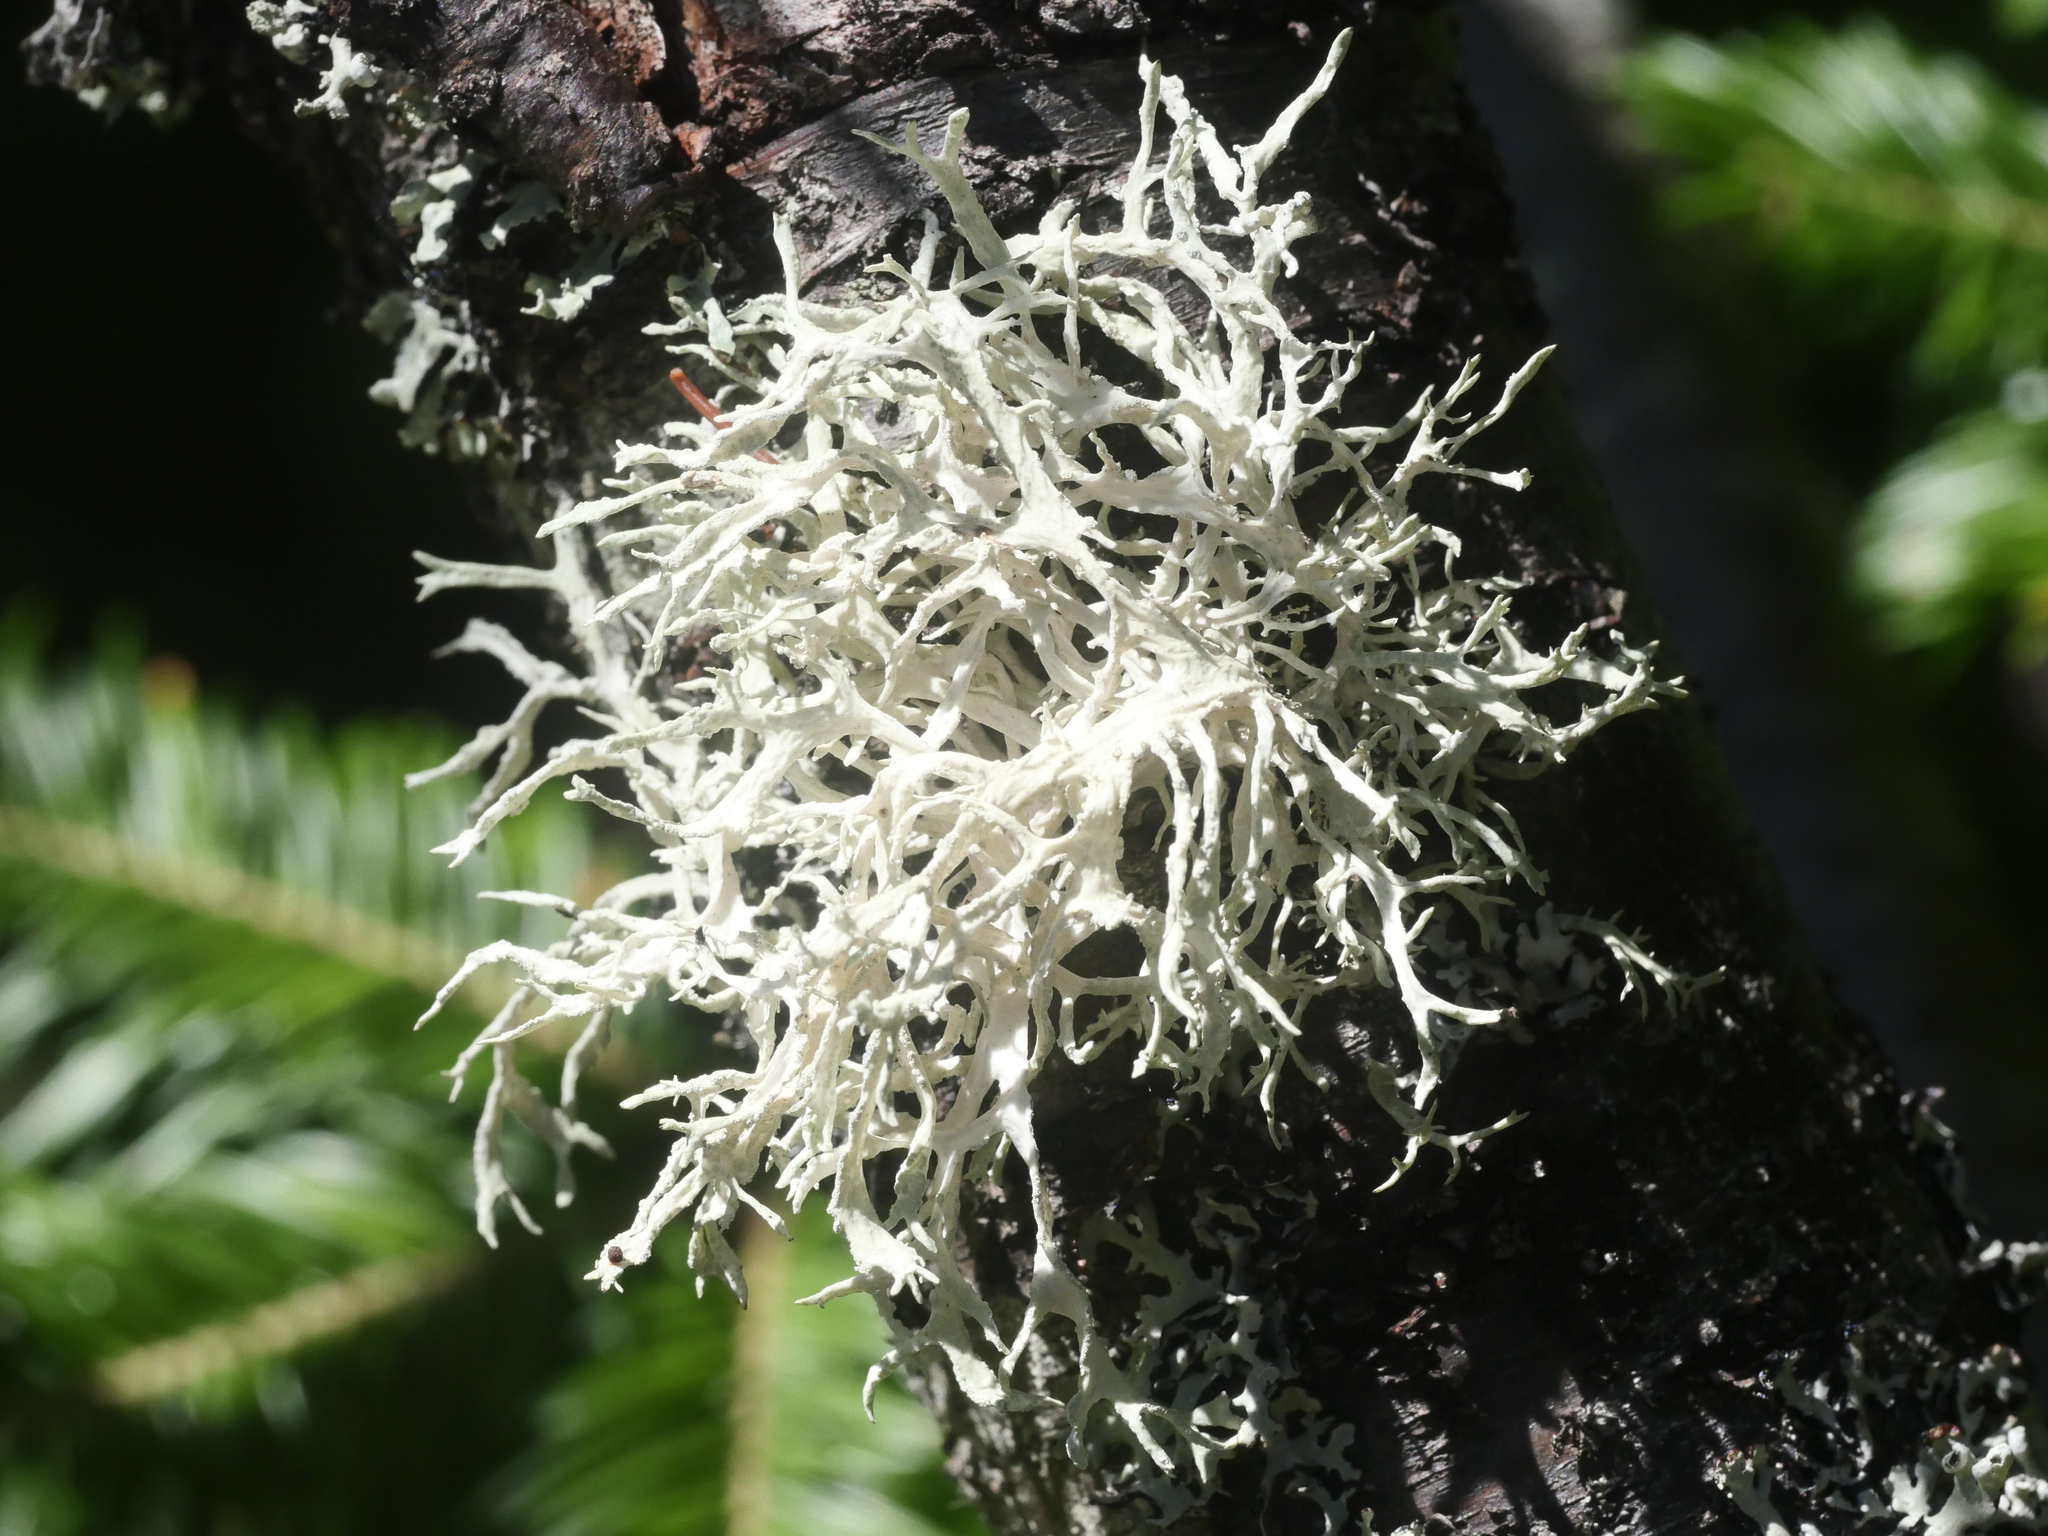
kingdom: Fungi
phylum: Ascomycota
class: Lecanoromycetes
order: Lecanorales
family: Parmeliaceae
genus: Evernia
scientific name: Evernia prunastri
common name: Oak moss
